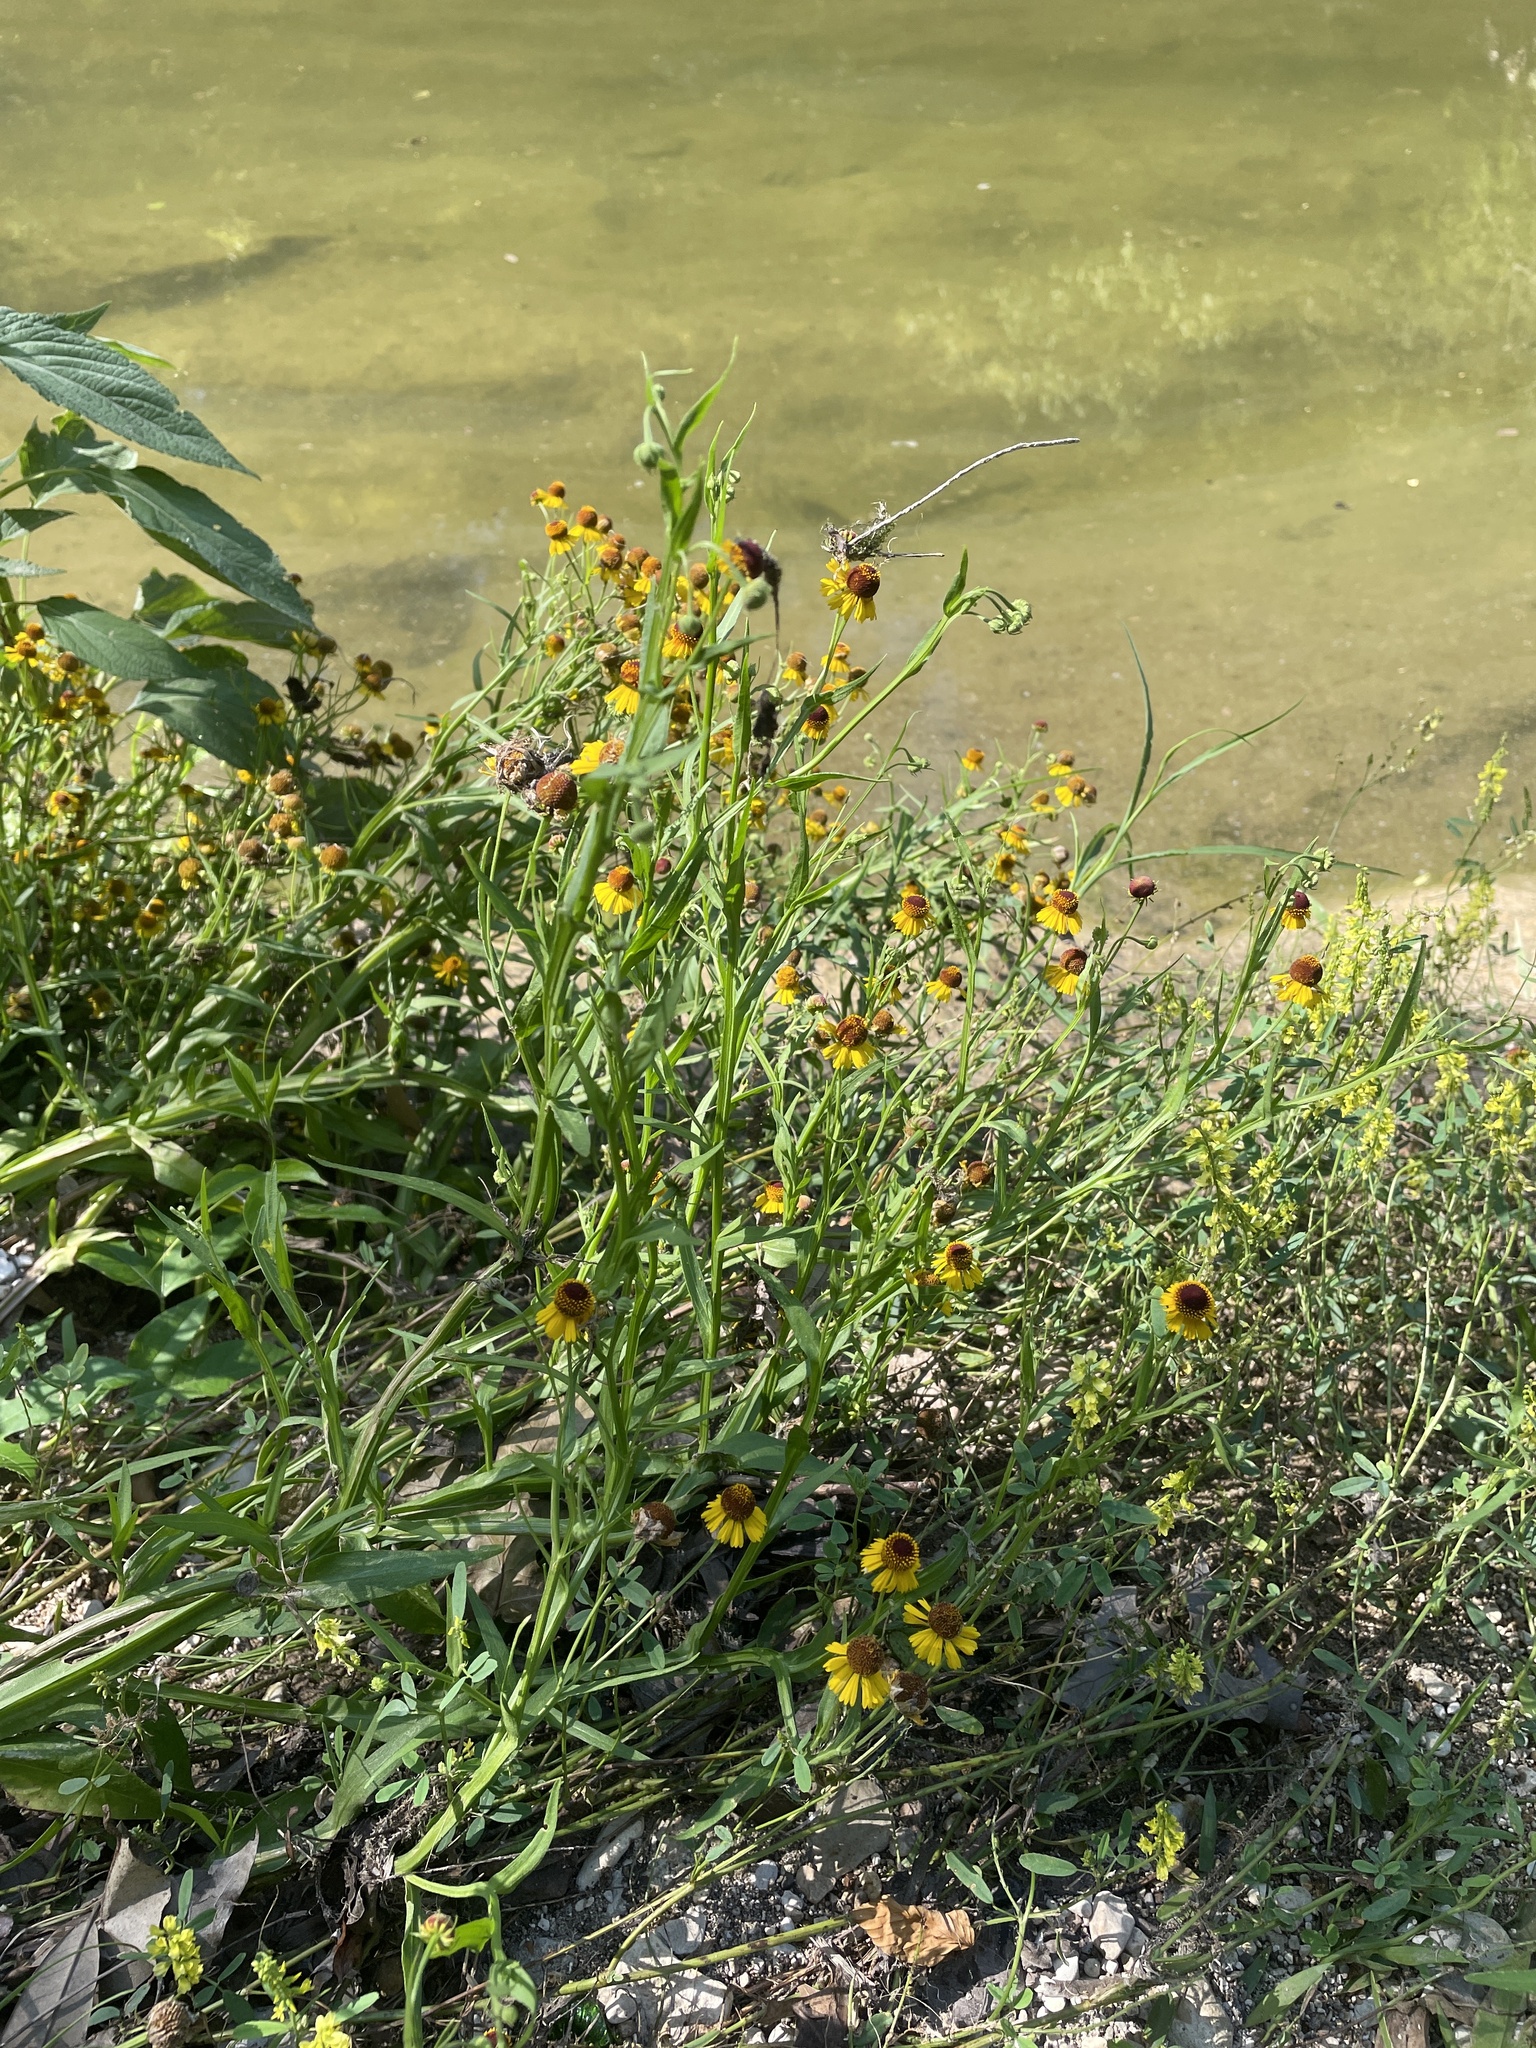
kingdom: Plantae
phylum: Tracheophyta
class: Magnoliopsida
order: Asterales
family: Asteraceae
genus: Helenium
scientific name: Helenium elegans
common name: Pretty sneezeweed
